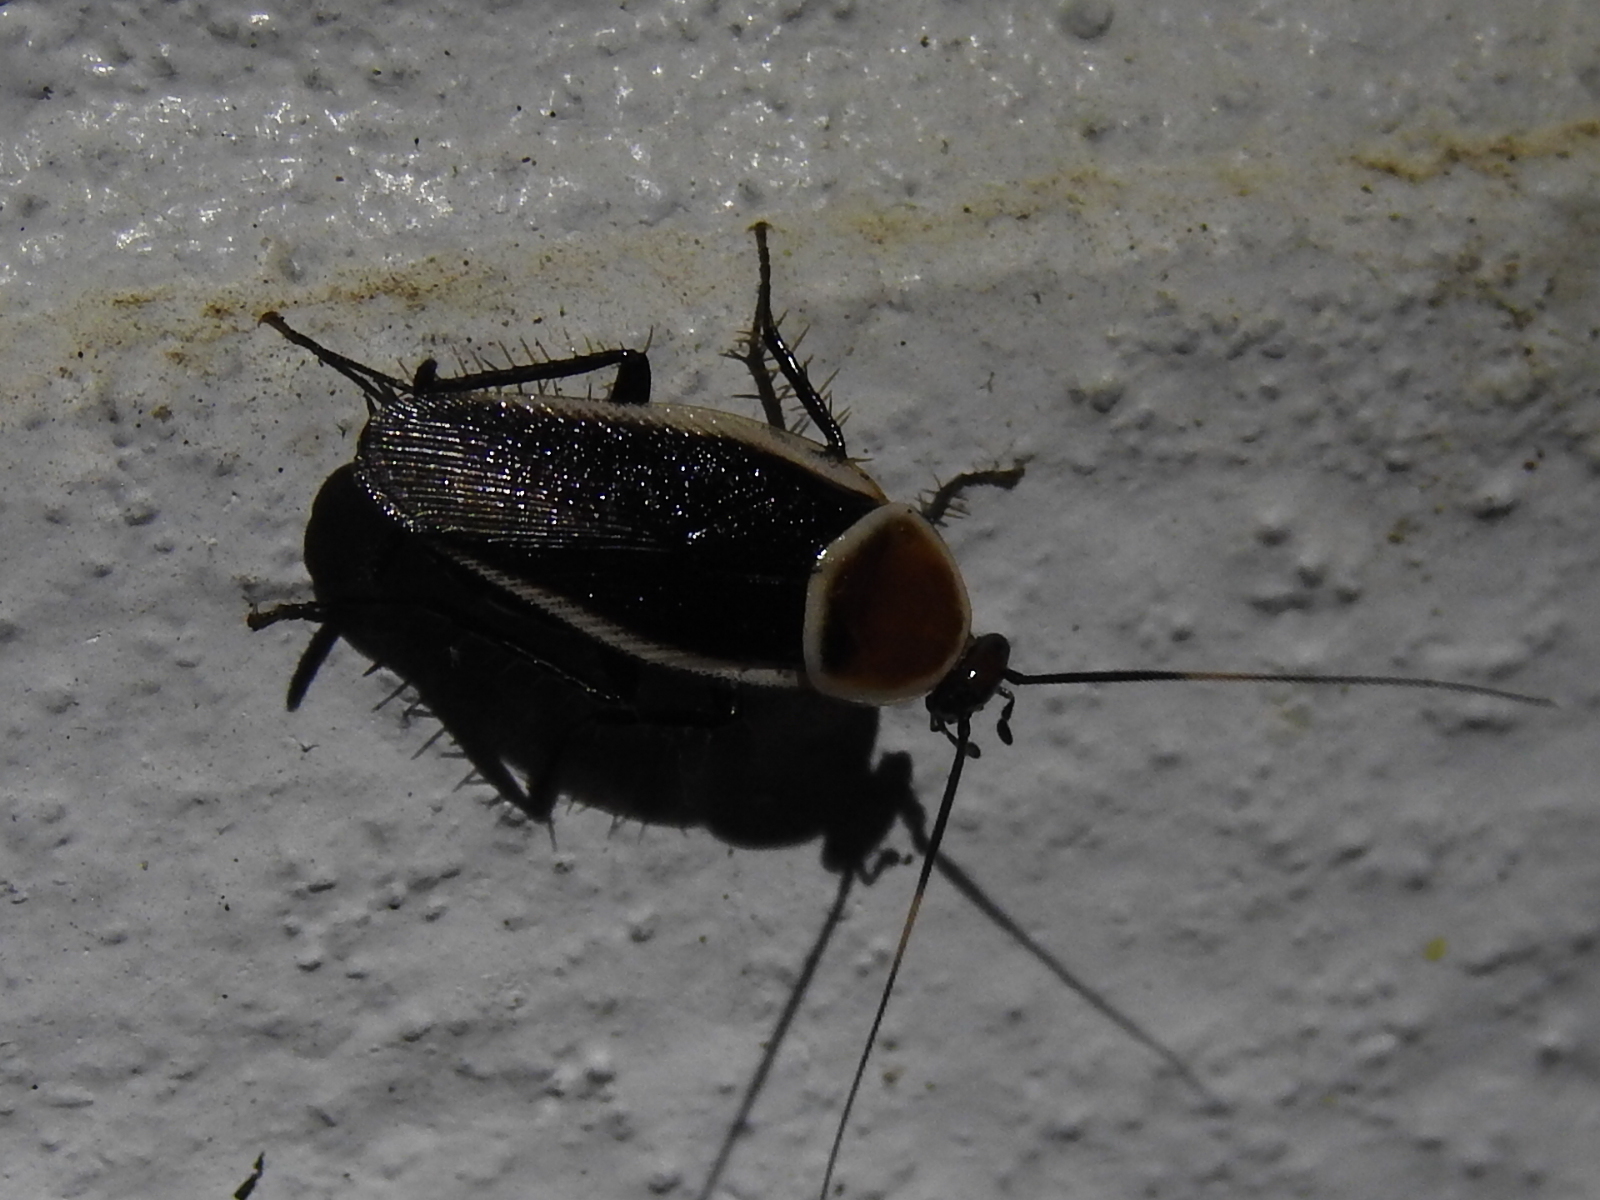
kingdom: Animalia
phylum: Arthropoda
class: Insecta
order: Blattodea
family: Ectobiidae
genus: Pseudomops
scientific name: Pseudomops septentrionalis
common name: Pale-bordered field cockroach
